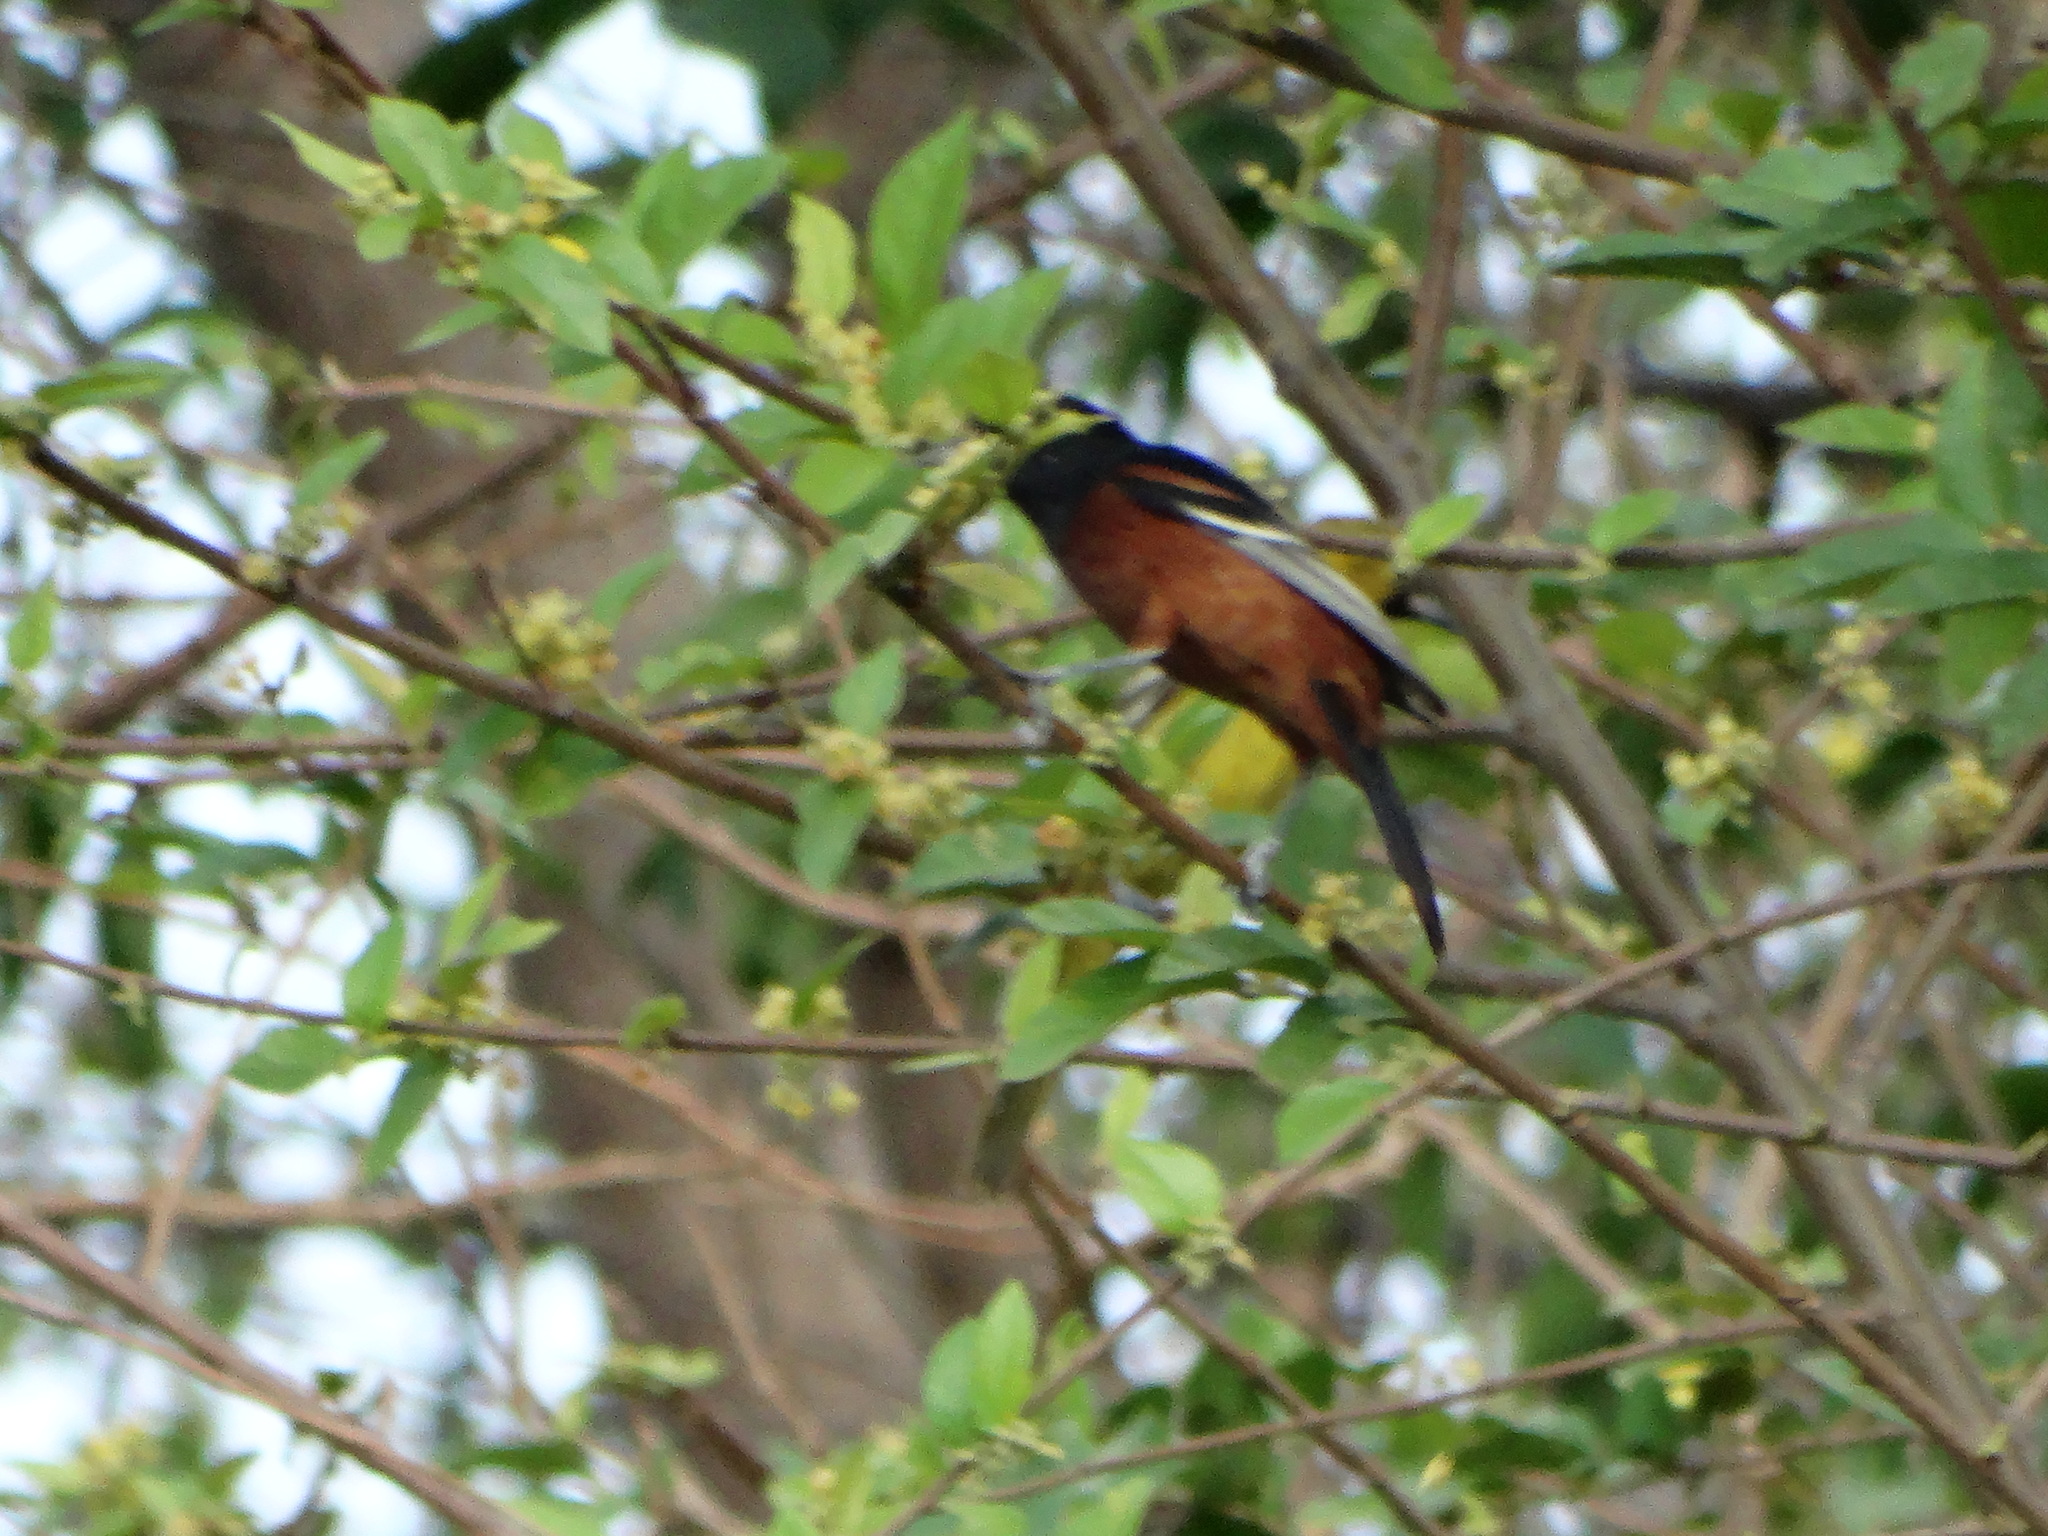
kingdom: Animalia
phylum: Chordata
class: Aves
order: Passeriformes
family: Icteridae
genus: Icterus
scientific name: Icterus spurius
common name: Orchard oriole
